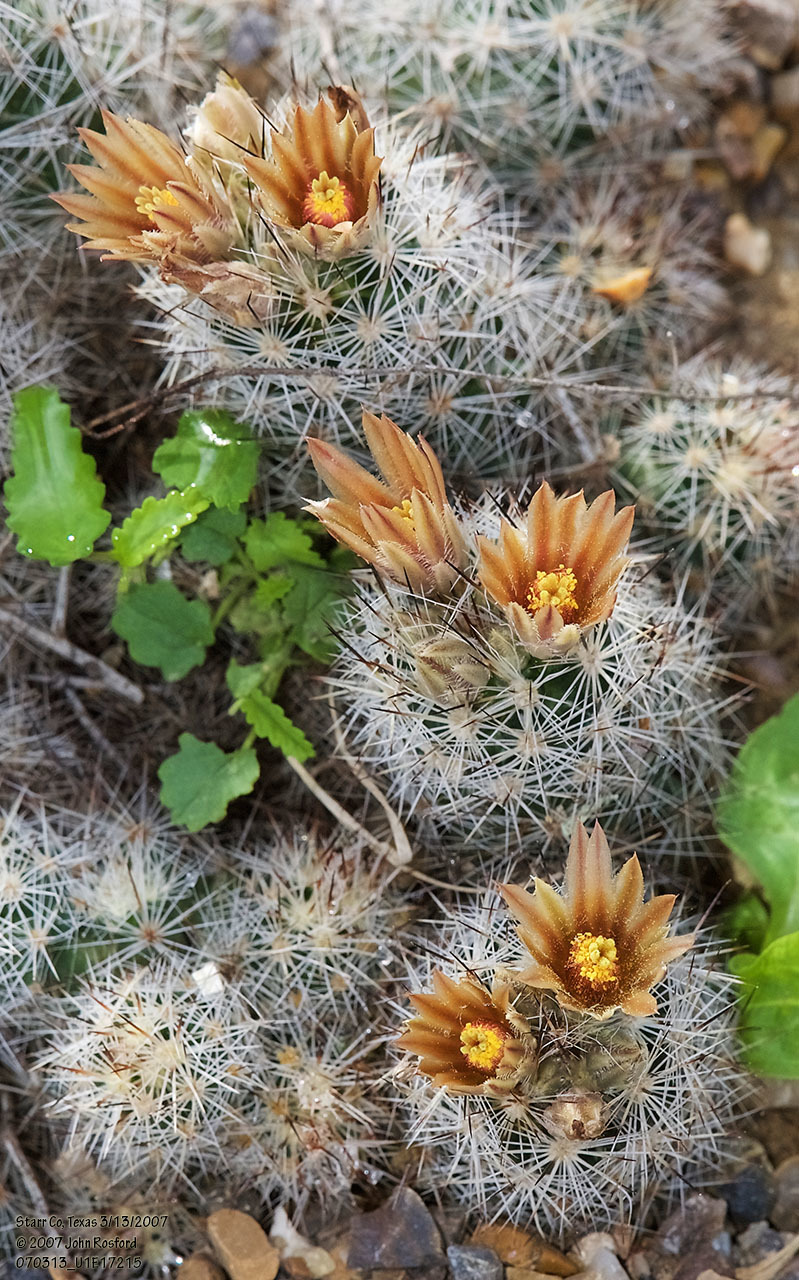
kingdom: Plantae
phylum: Tracheophyta
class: Magnoliopsida
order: Caryophyllales
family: Cactaceae
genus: Pelecyphora
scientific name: Pelecyphora emskoetteriana
